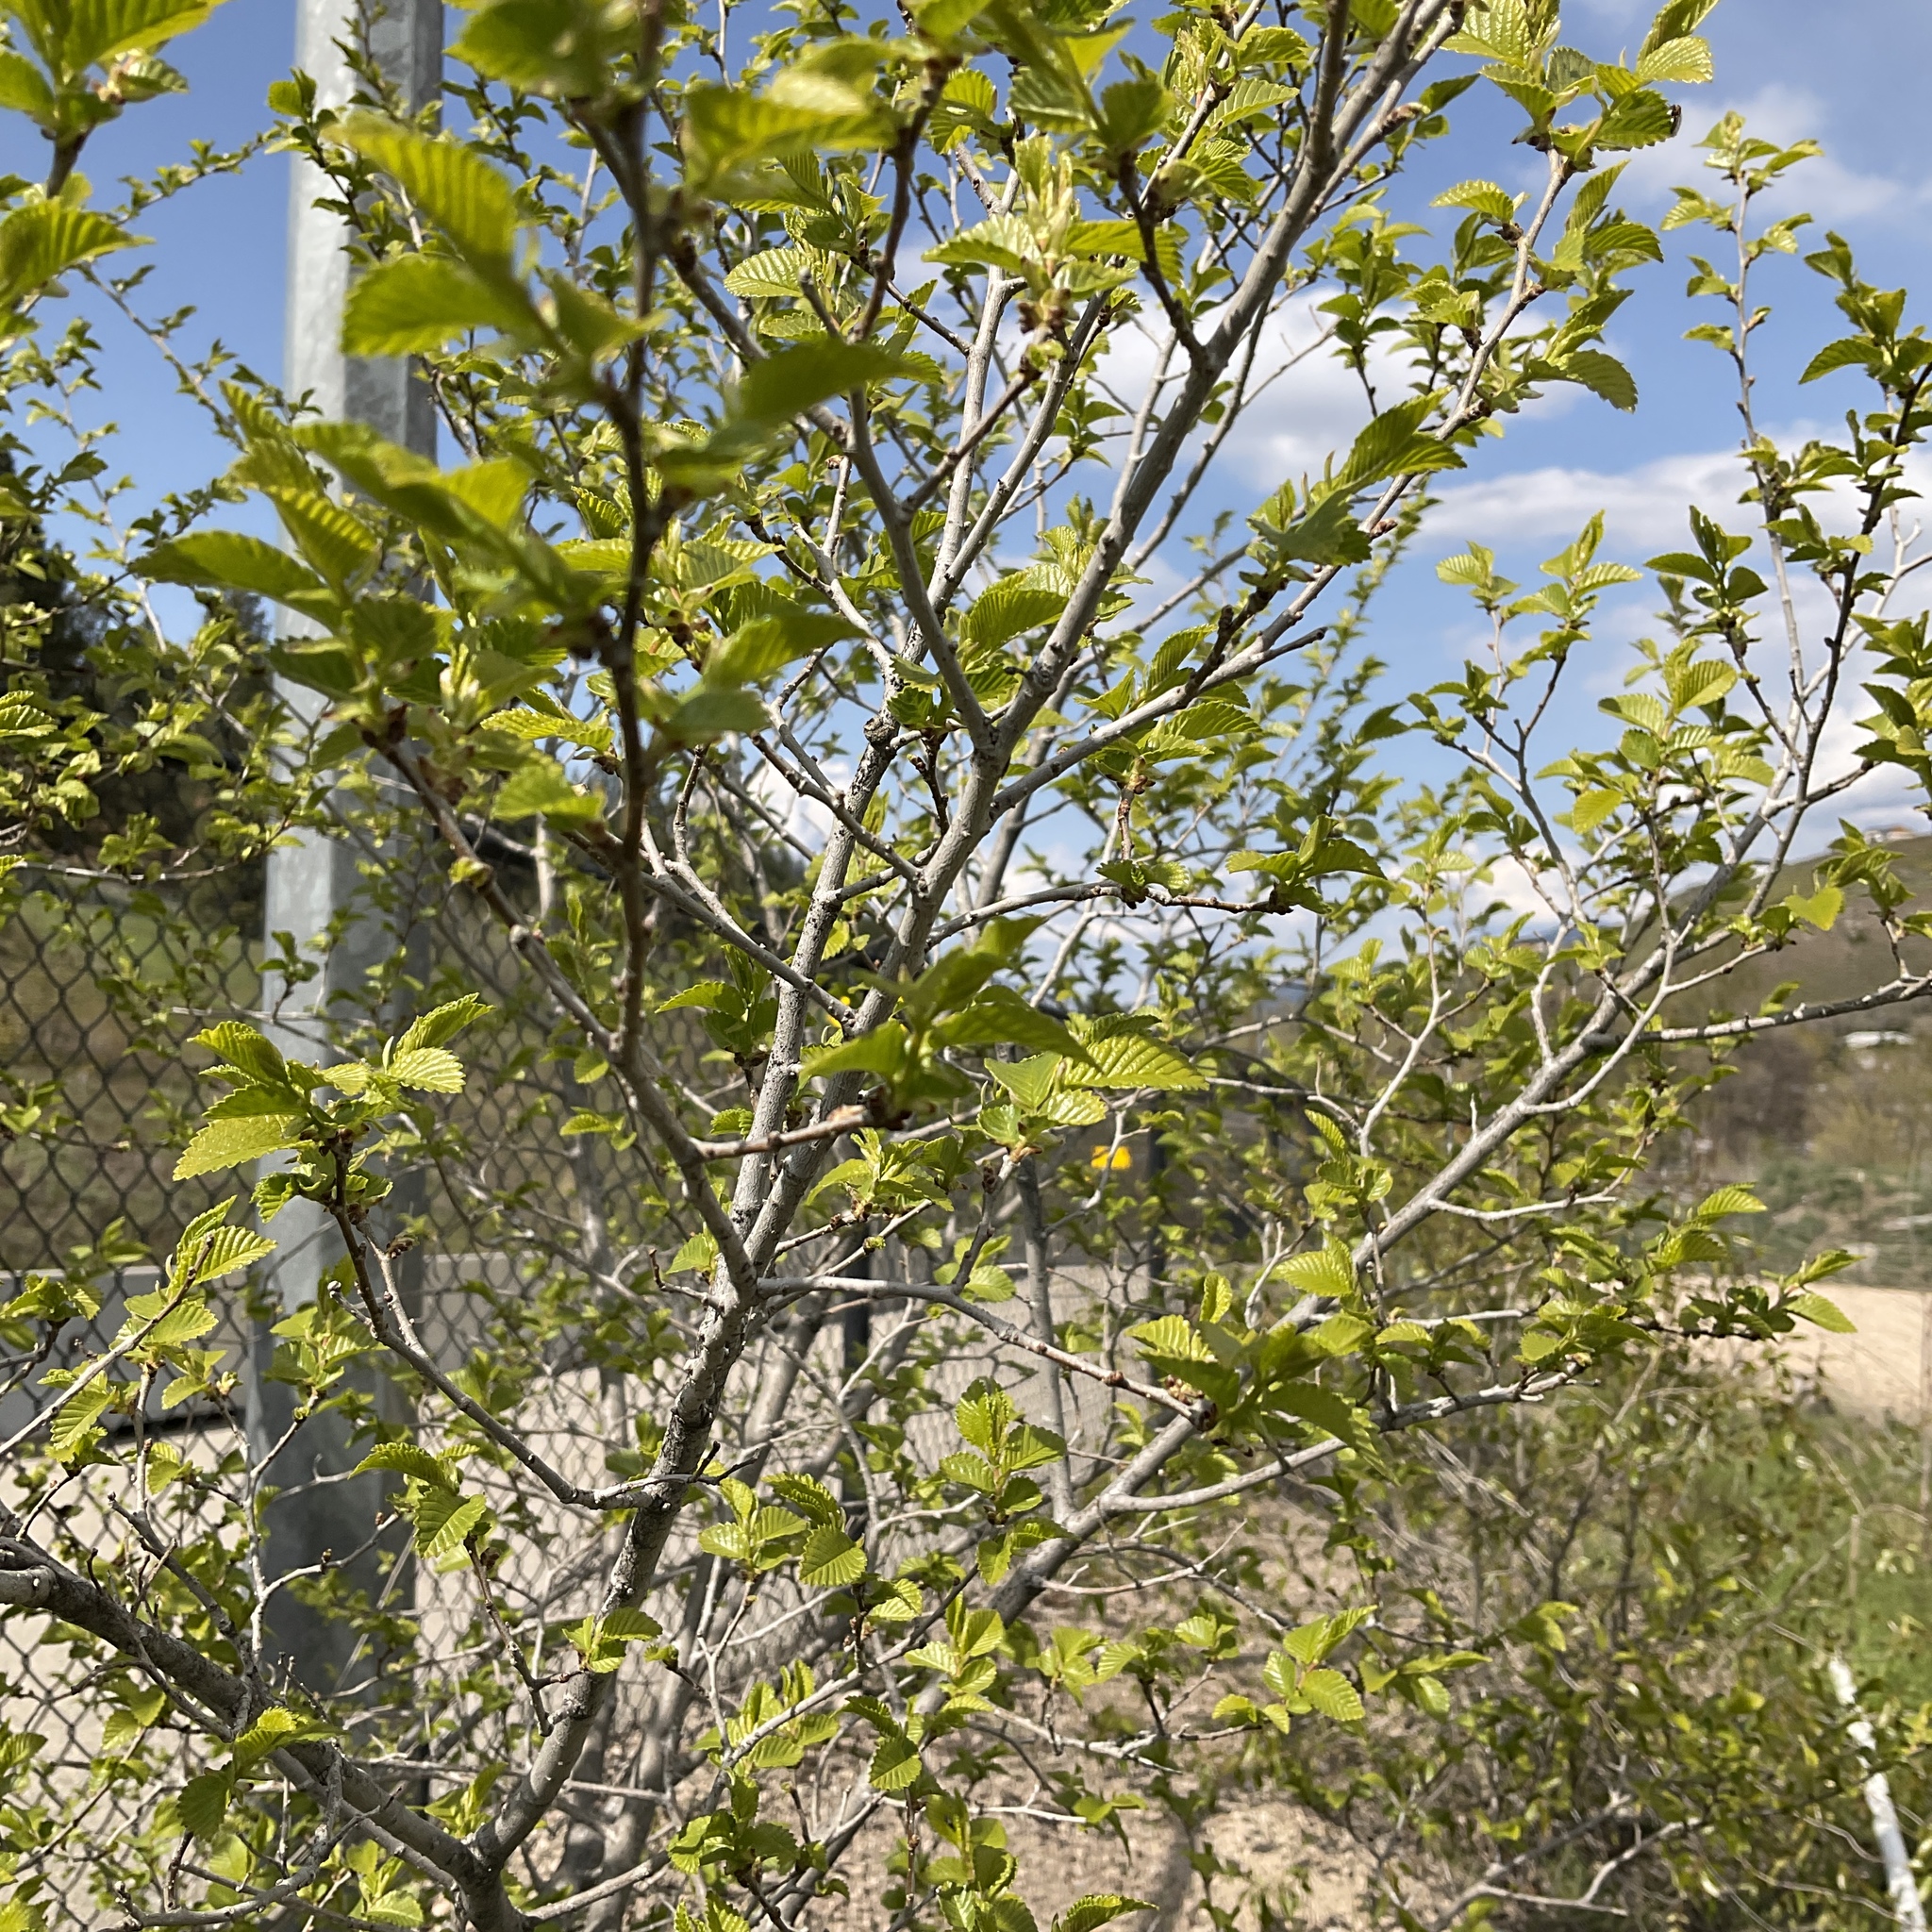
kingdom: Plantae
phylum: Tracheophyta
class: Magnoliopsida
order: Rosales
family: Ulmaceae
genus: Ulmus
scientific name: Ulmus pumila
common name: Siberian elm
